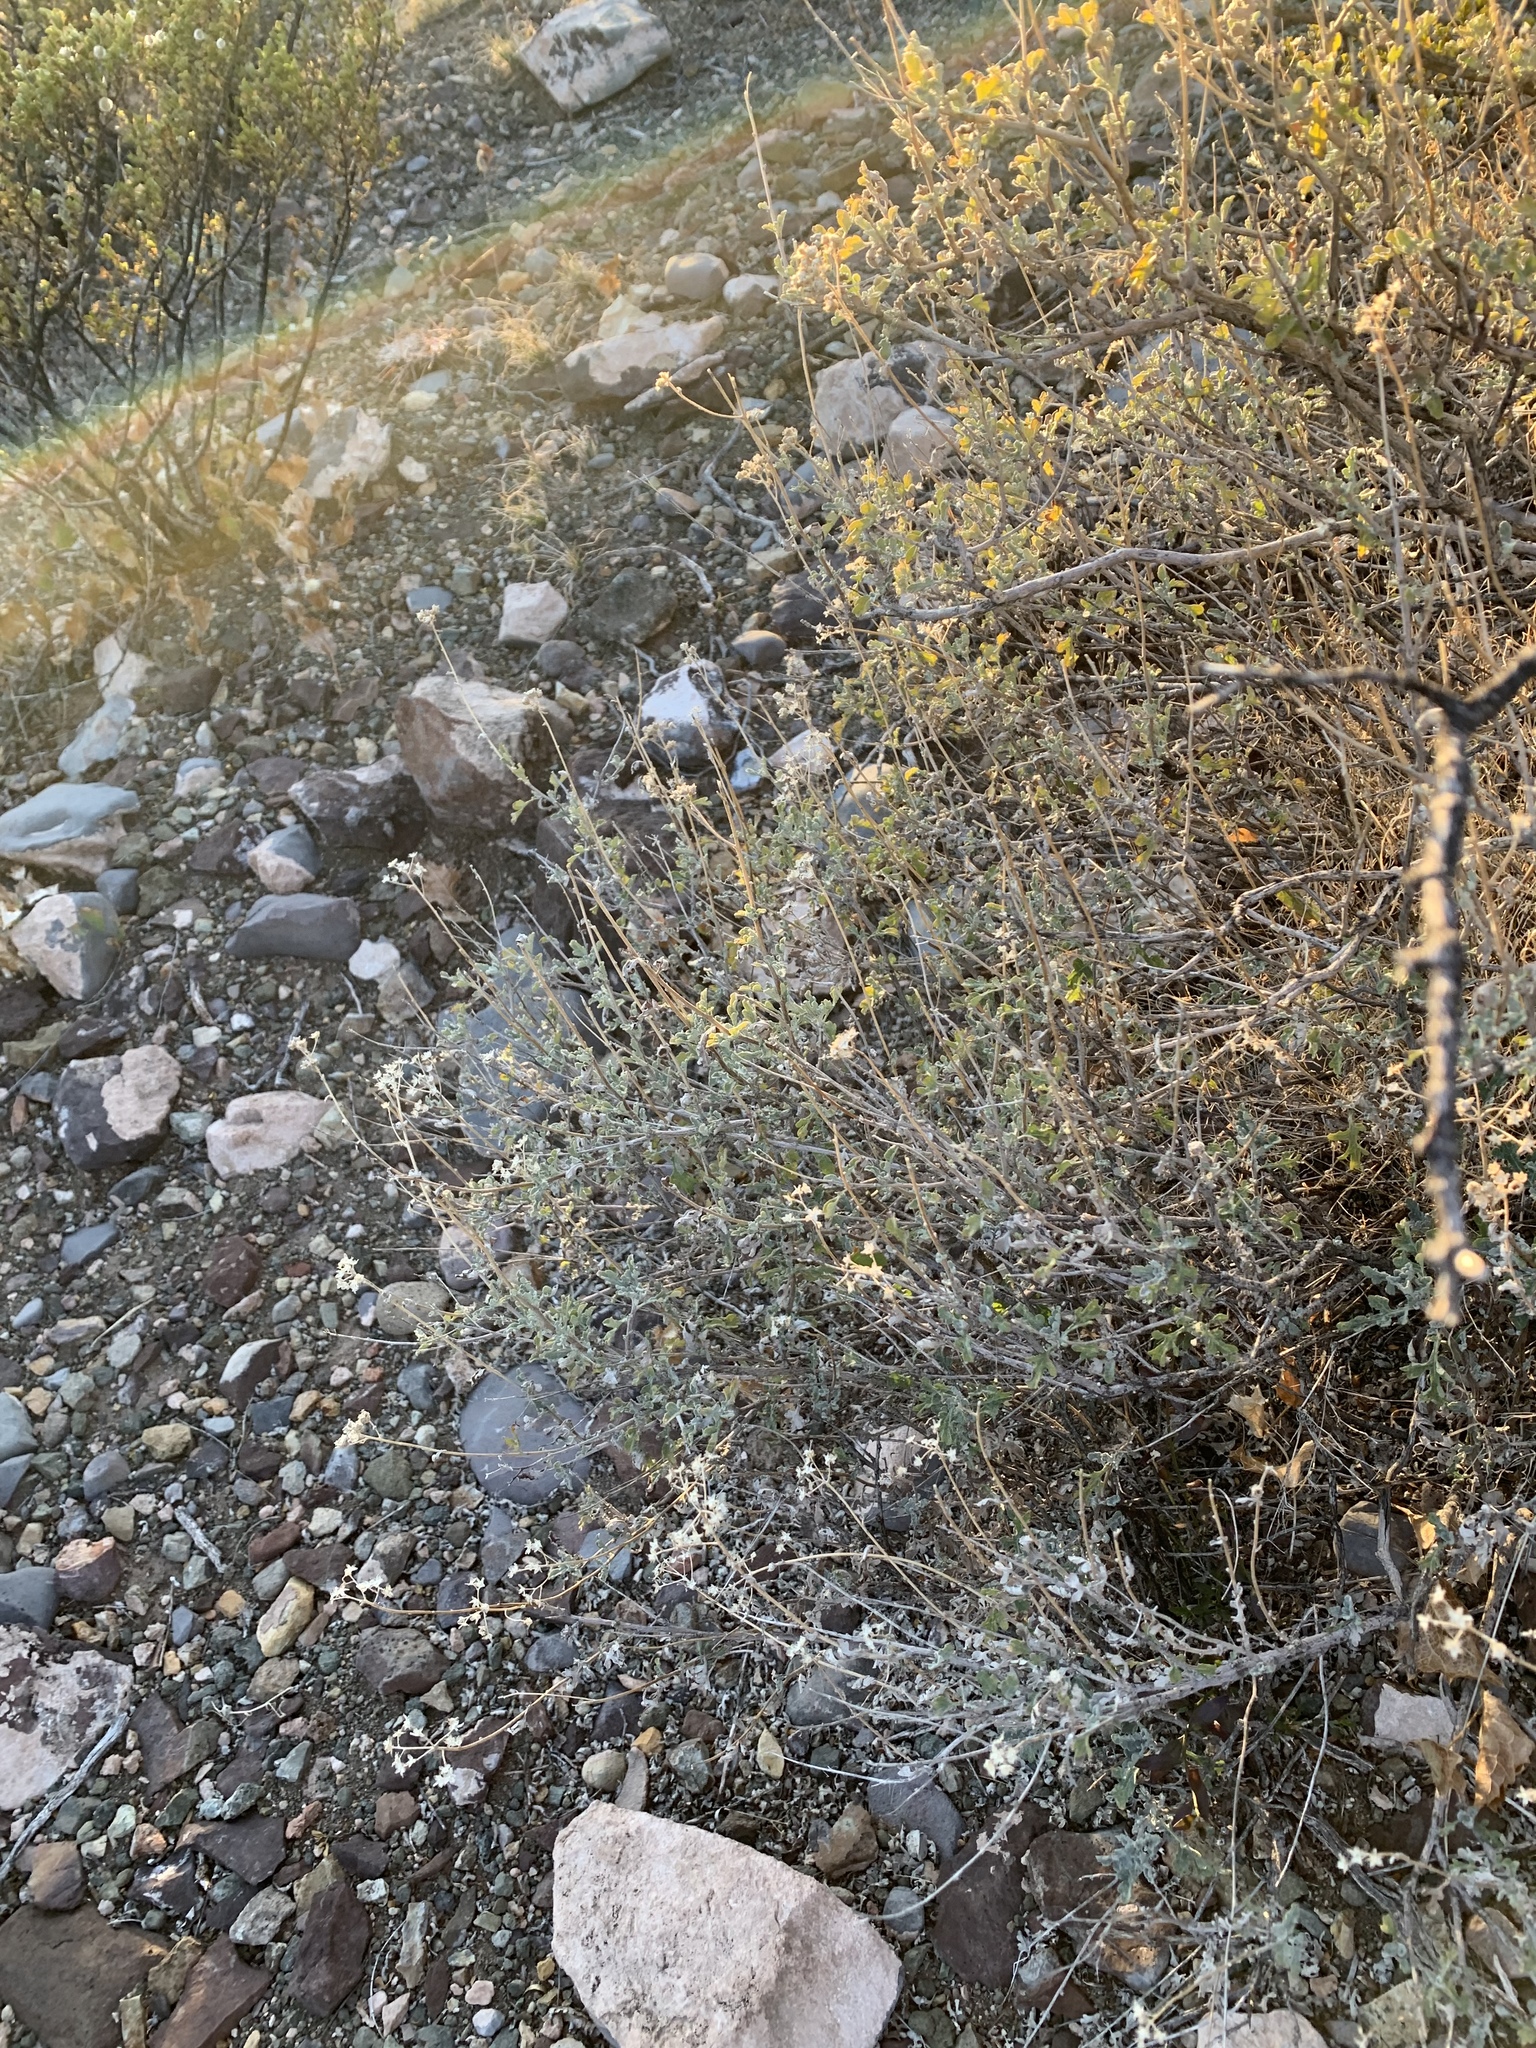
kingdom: Plantae
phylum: Tracheophyta
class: Magnoliopsida
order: Asterales
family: Asteraceae
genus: Parthenium
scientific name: Parthenium incanum
